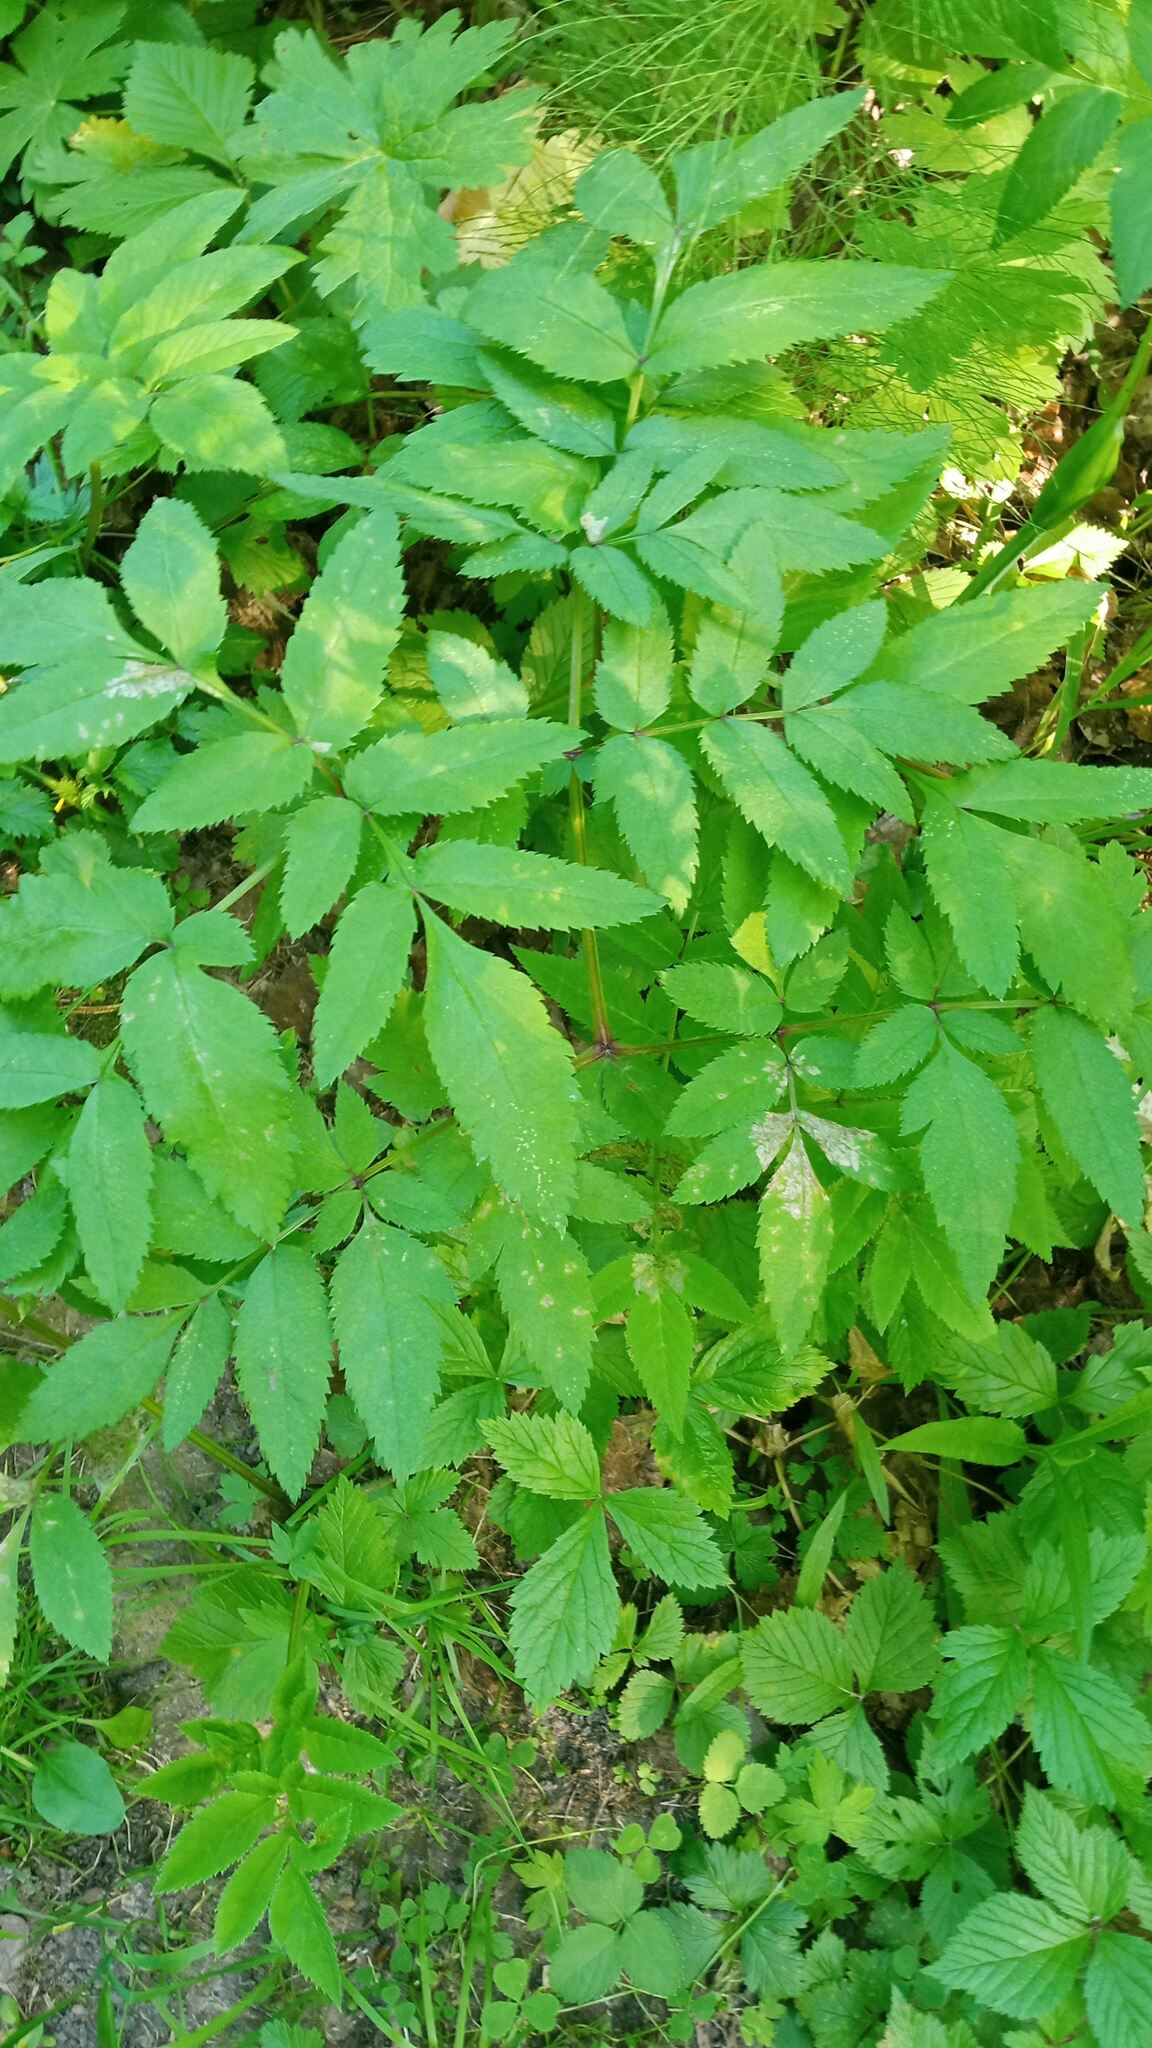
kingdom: Plantae
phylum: Tracheophyta
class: Magnoliopsida
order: Apiales
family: Apiaceae
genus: Angelica
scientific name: Angelica sylvestris
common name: Wild angelica
